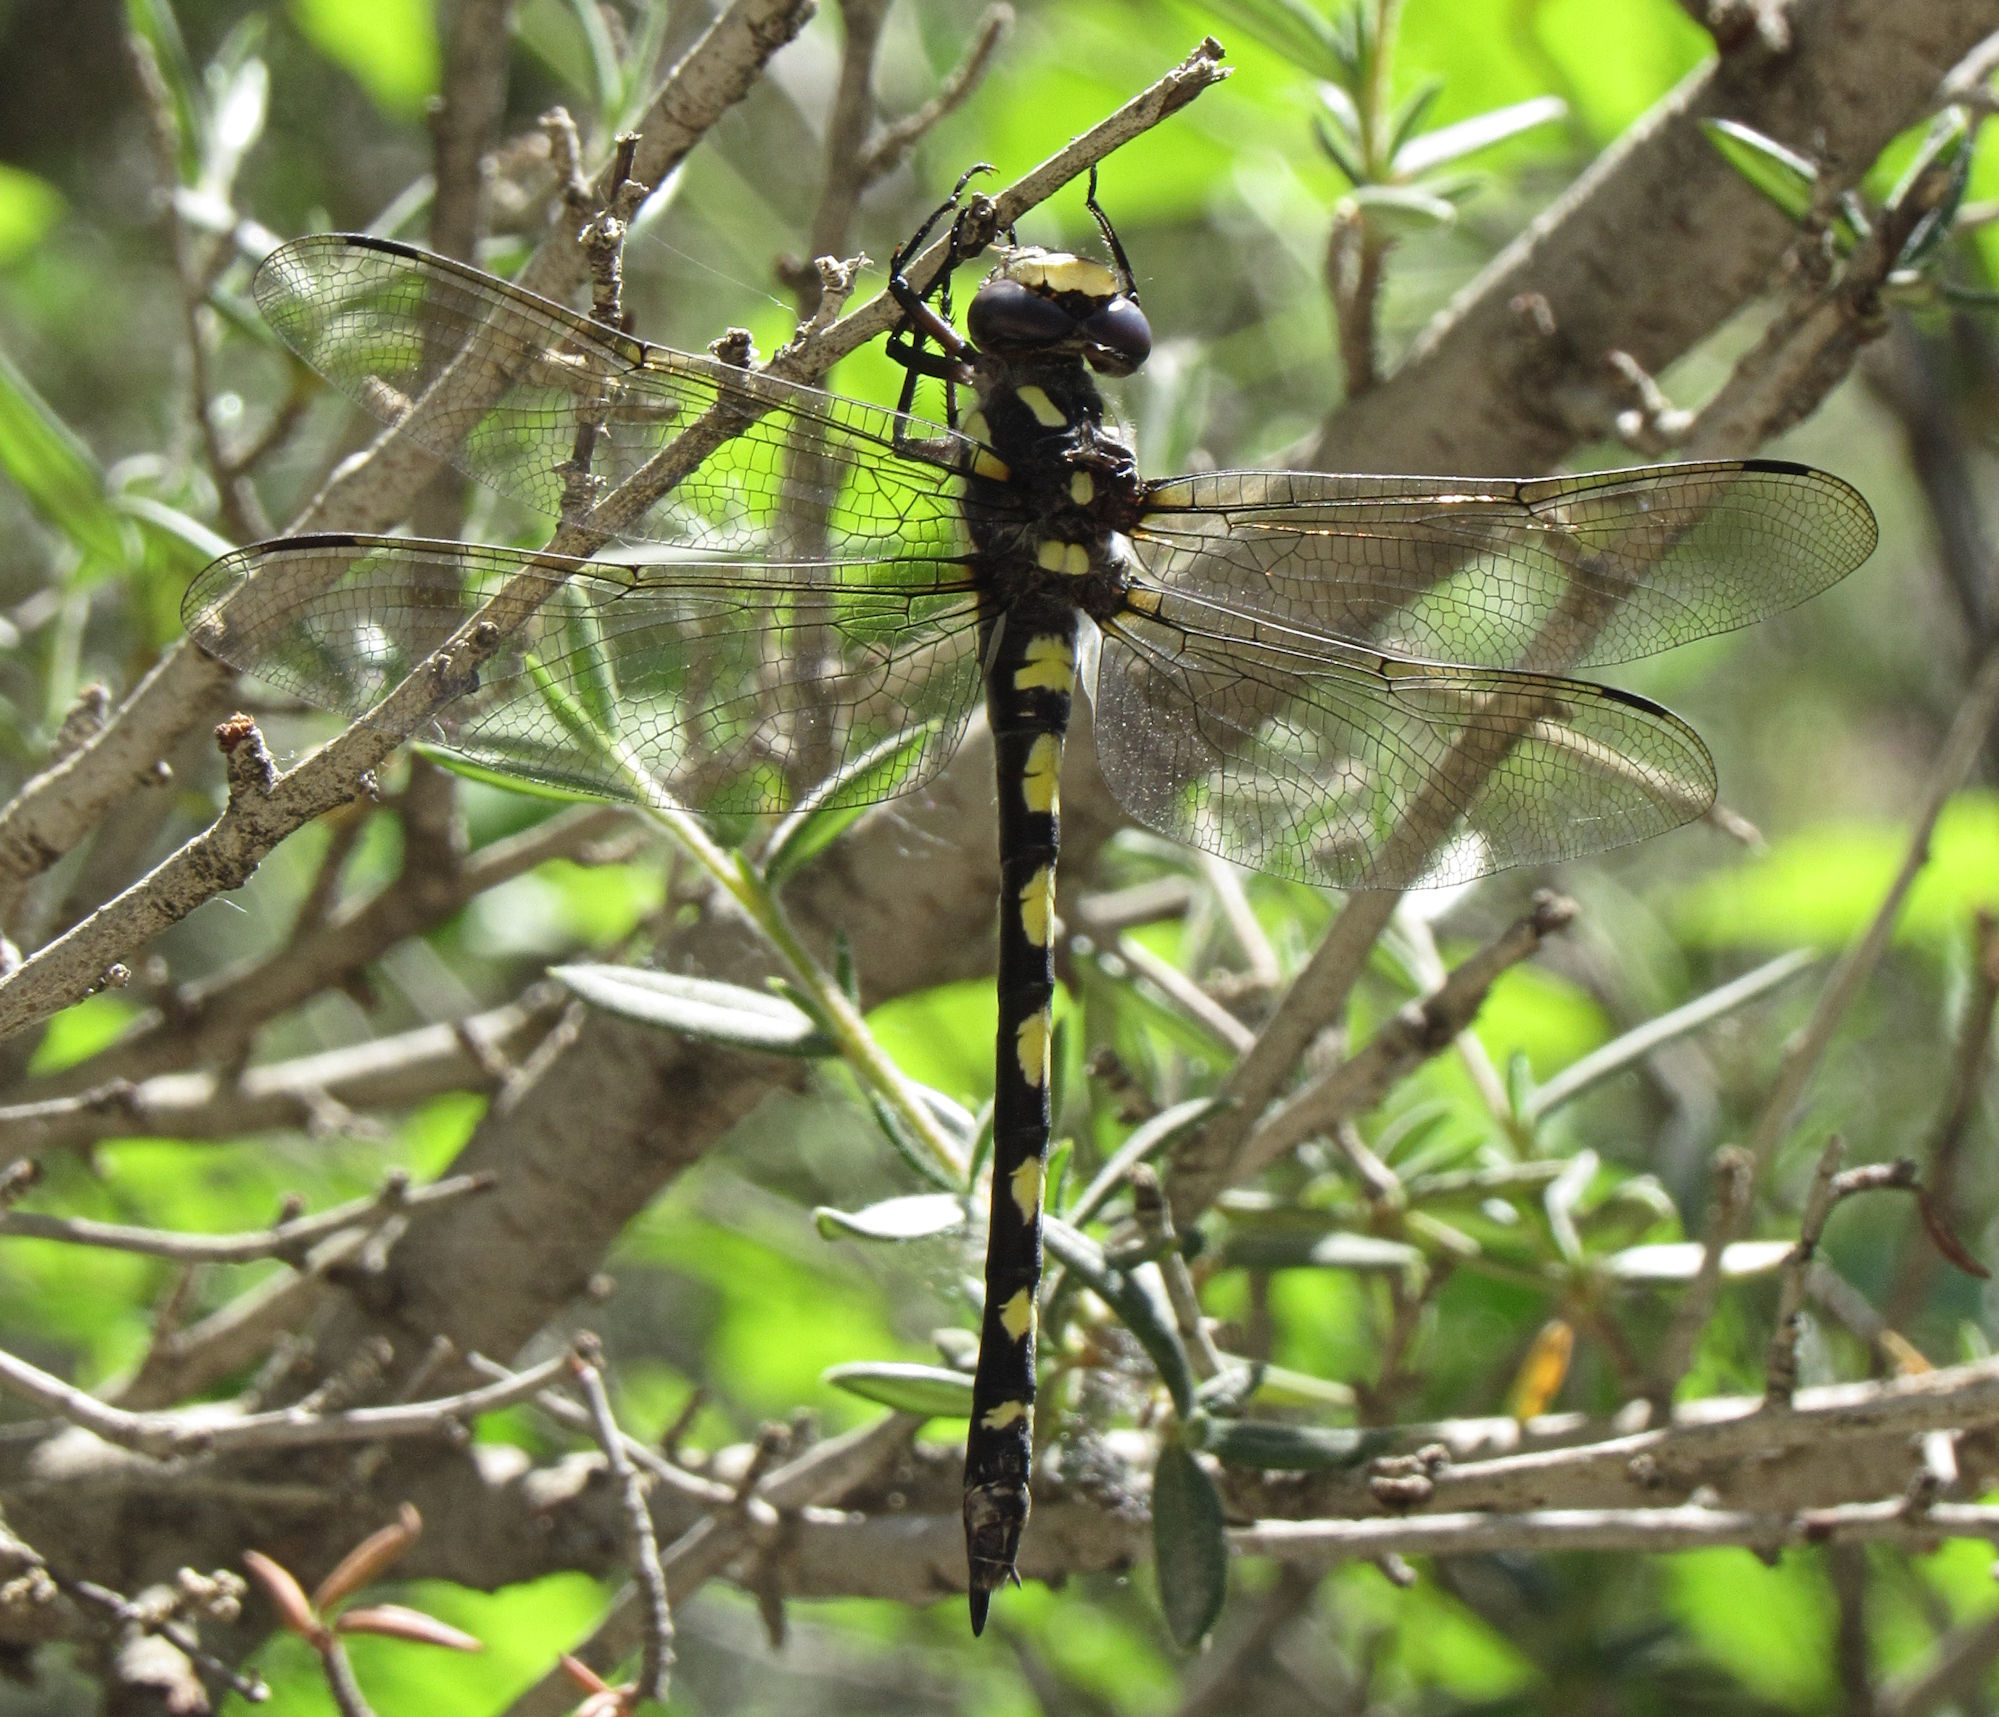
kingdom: Animalia
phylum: Arthropoda
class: Insecta
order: Odonata
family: Cordulegastridae
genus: Cordulegaster
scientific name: Cordulegaster dorsalis
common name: Pacific spiketail
